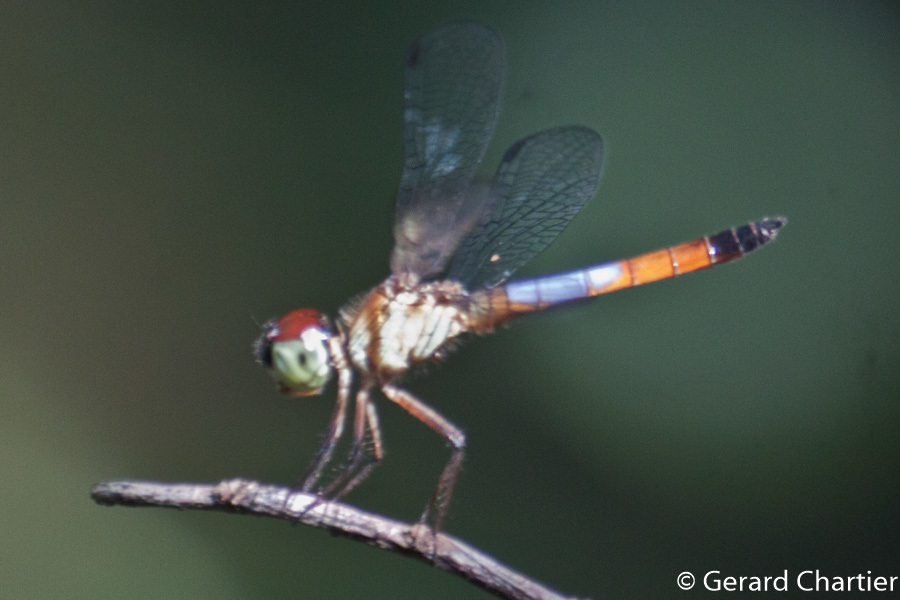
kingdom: Animalia
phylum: Arthropoda
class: Insecta
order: Odonata
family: Libellulidae
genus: Brachygonia
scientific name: Brachygonia oculata
